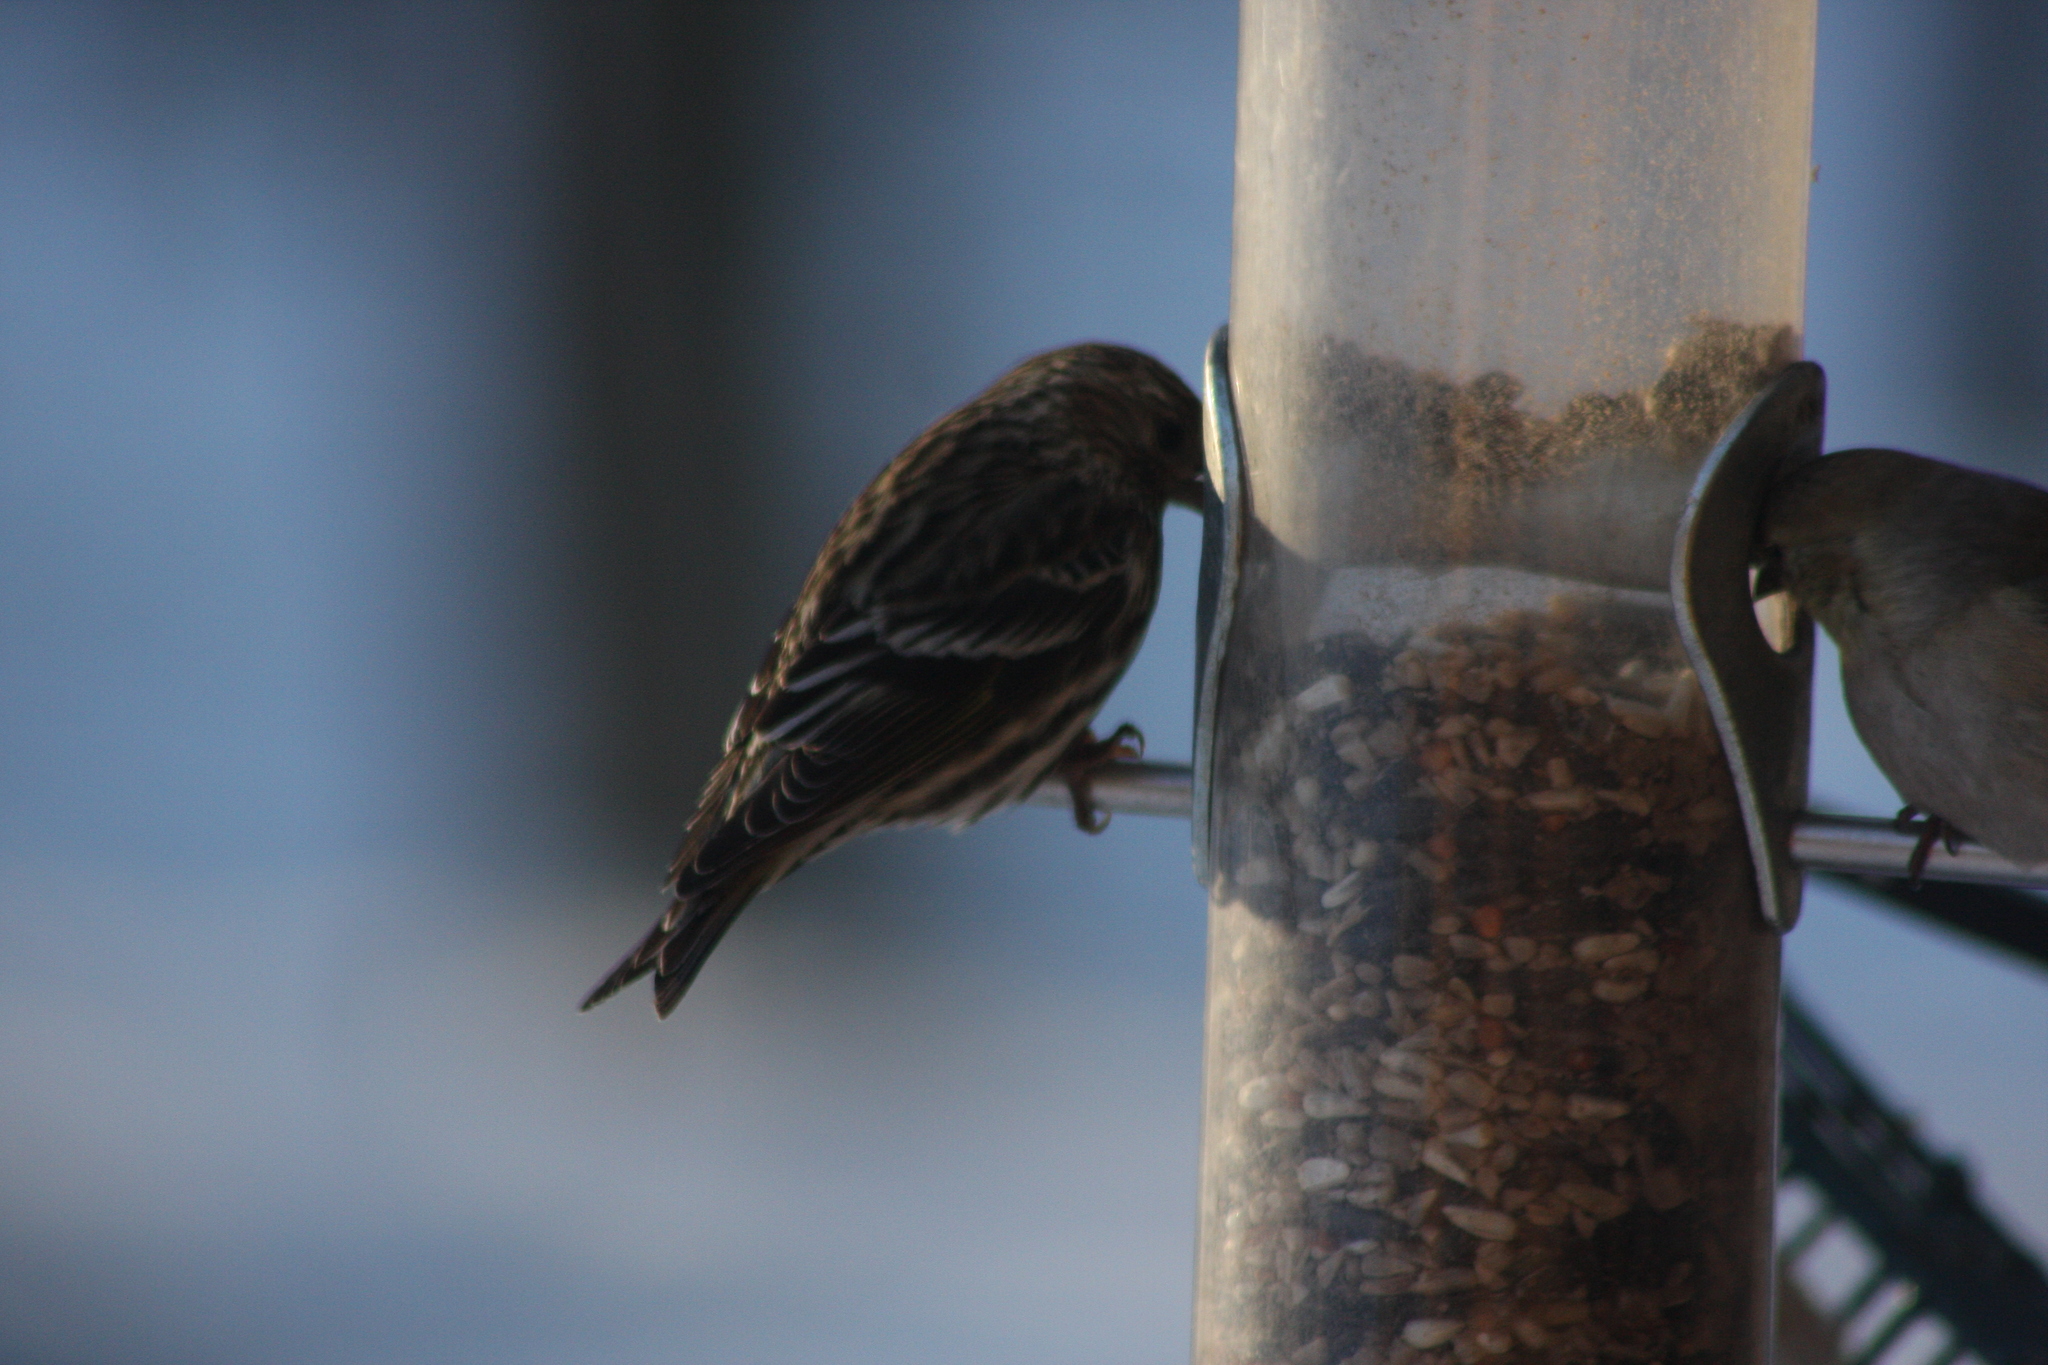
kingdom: Animalia
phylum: Chordata
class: Aves
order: Passeriformes
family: Fringillidae
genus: Spinus
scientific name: Spinus pinus
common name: Pine siskin
